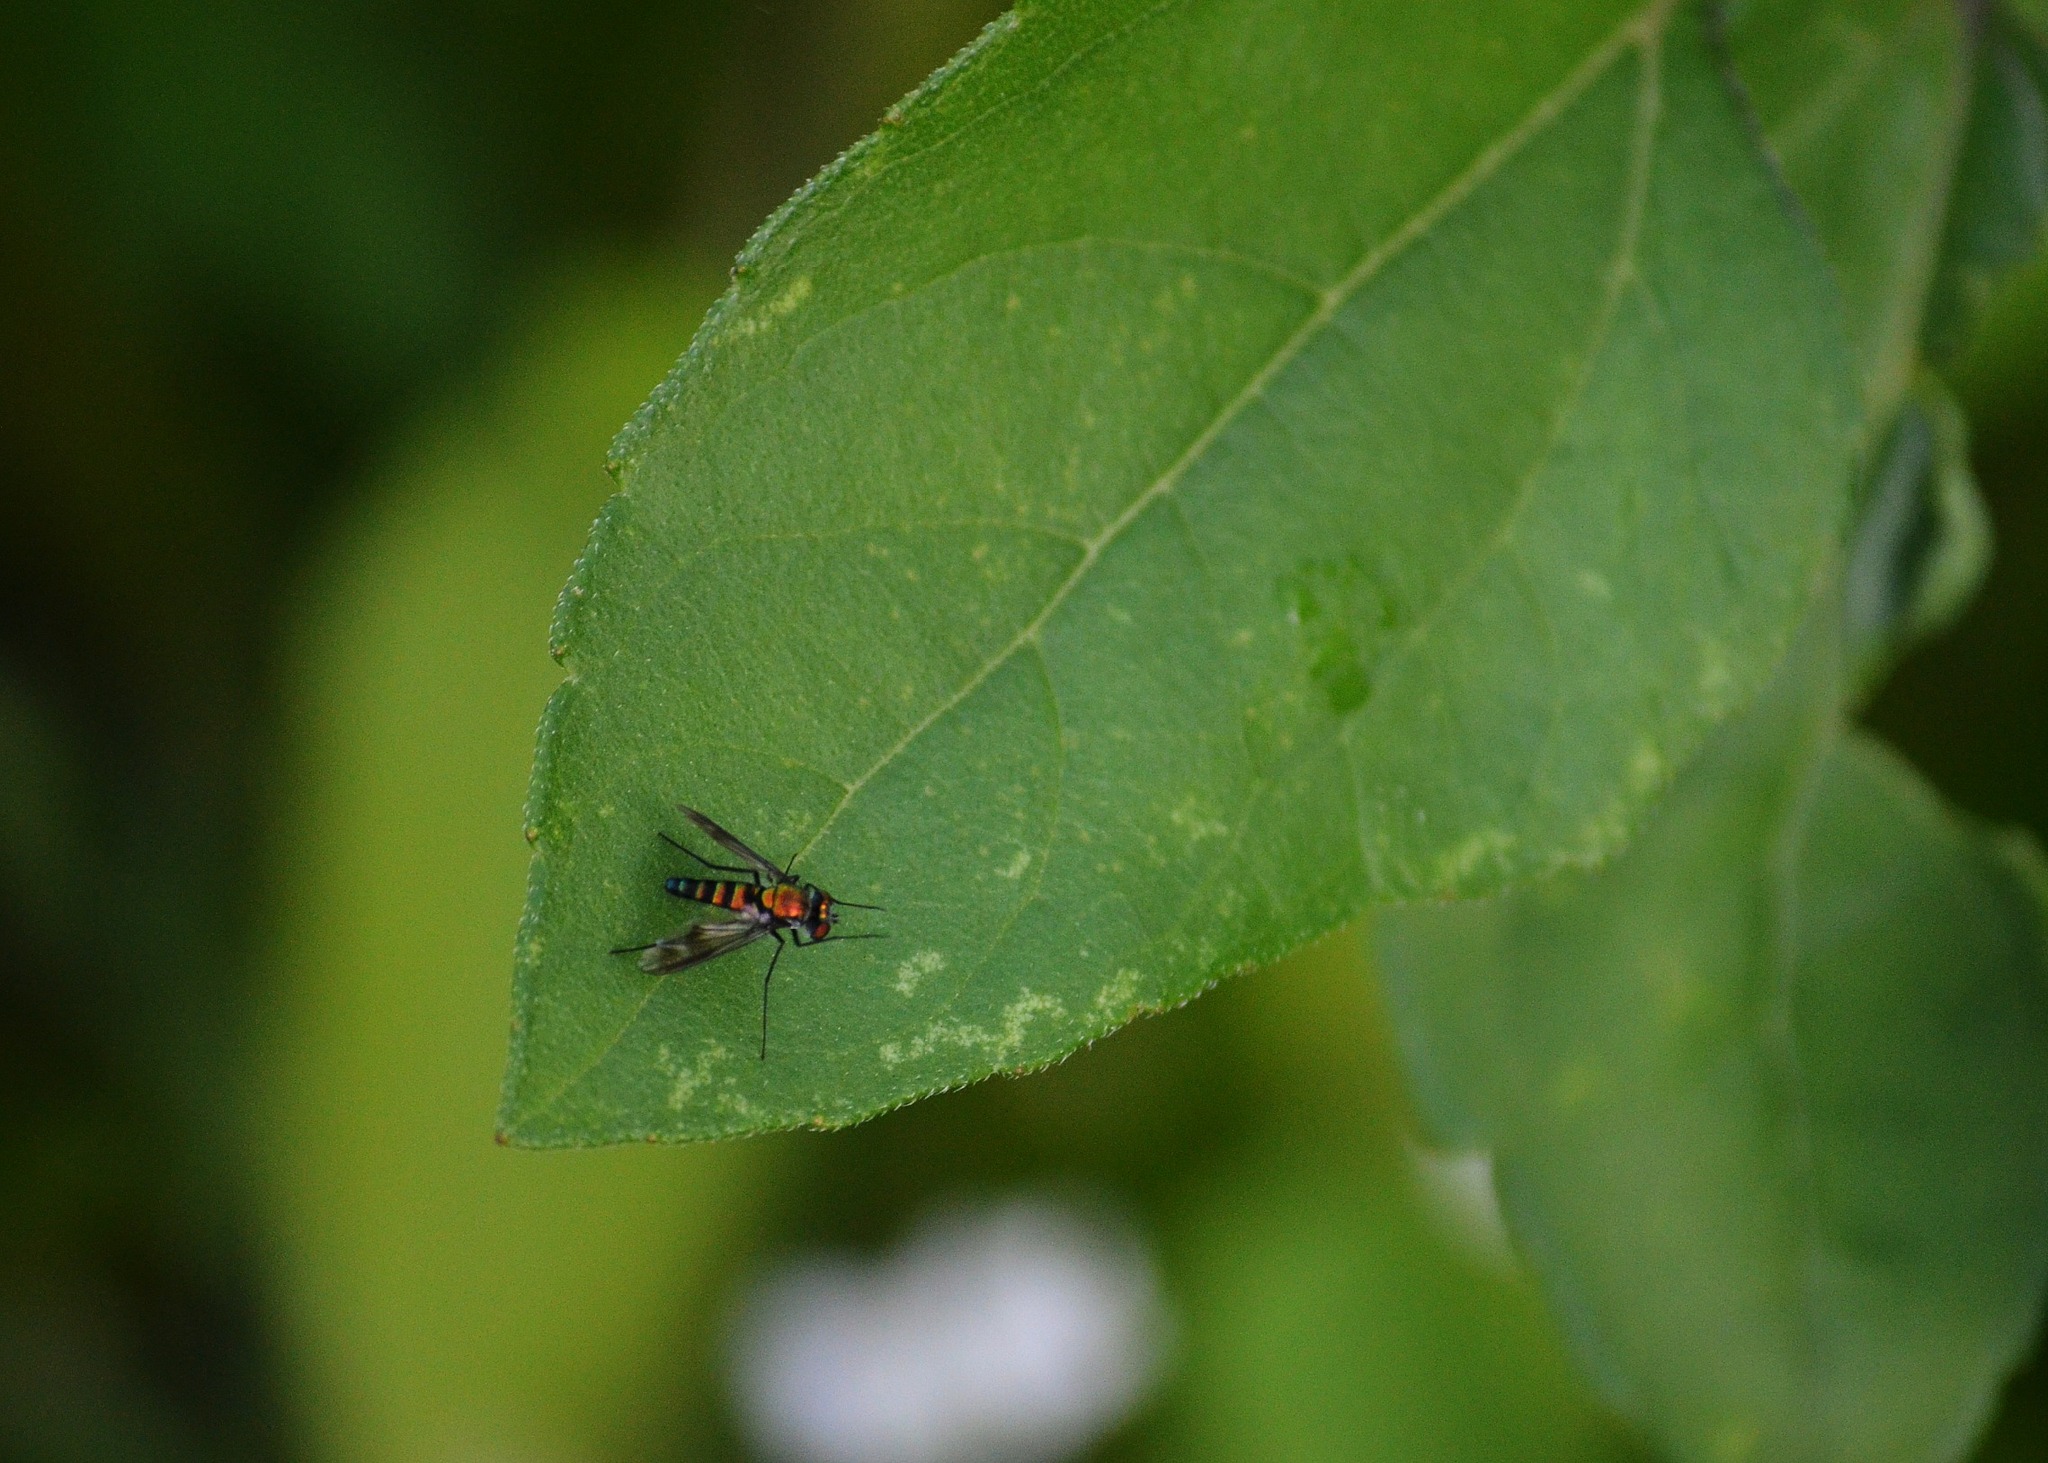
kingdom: Animalia
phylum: Arthropoda
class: Insecta
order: Diptera
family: Dolichopodidae
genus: Condylostylus
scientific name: Condylostylus patibulatus
